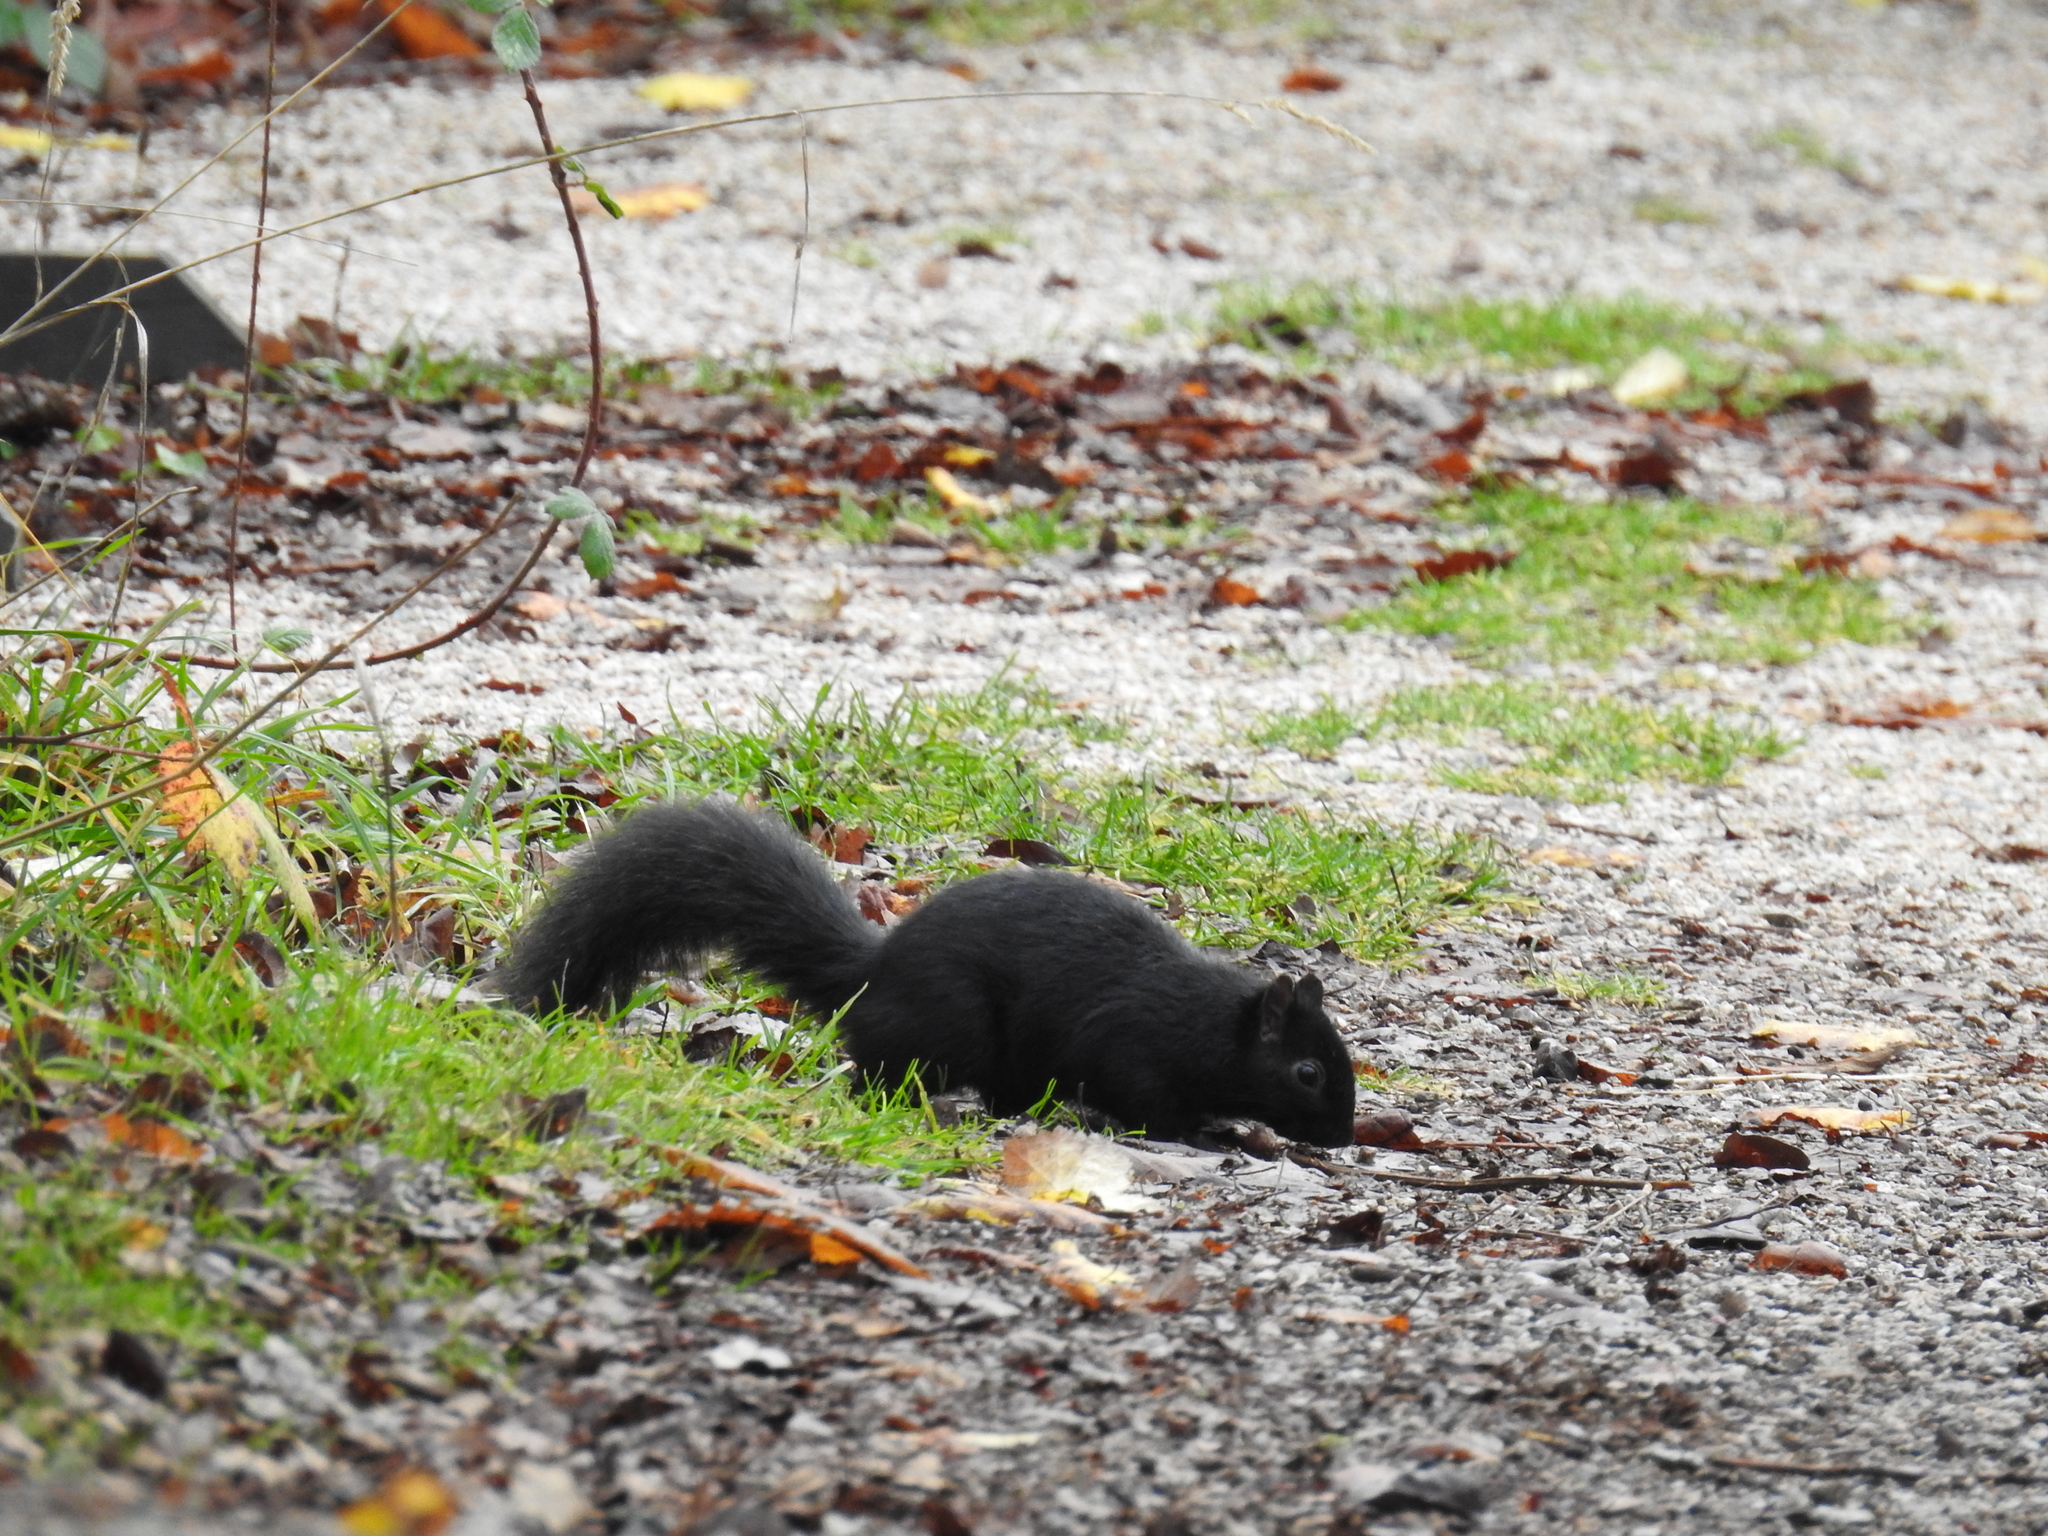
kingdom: Animalia
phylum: Chordata
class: Mammalia
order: Rodentia
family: Sciuridae
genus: Sciurus
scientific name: Sciurus carolinensis
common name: Eastern gray squirrel
